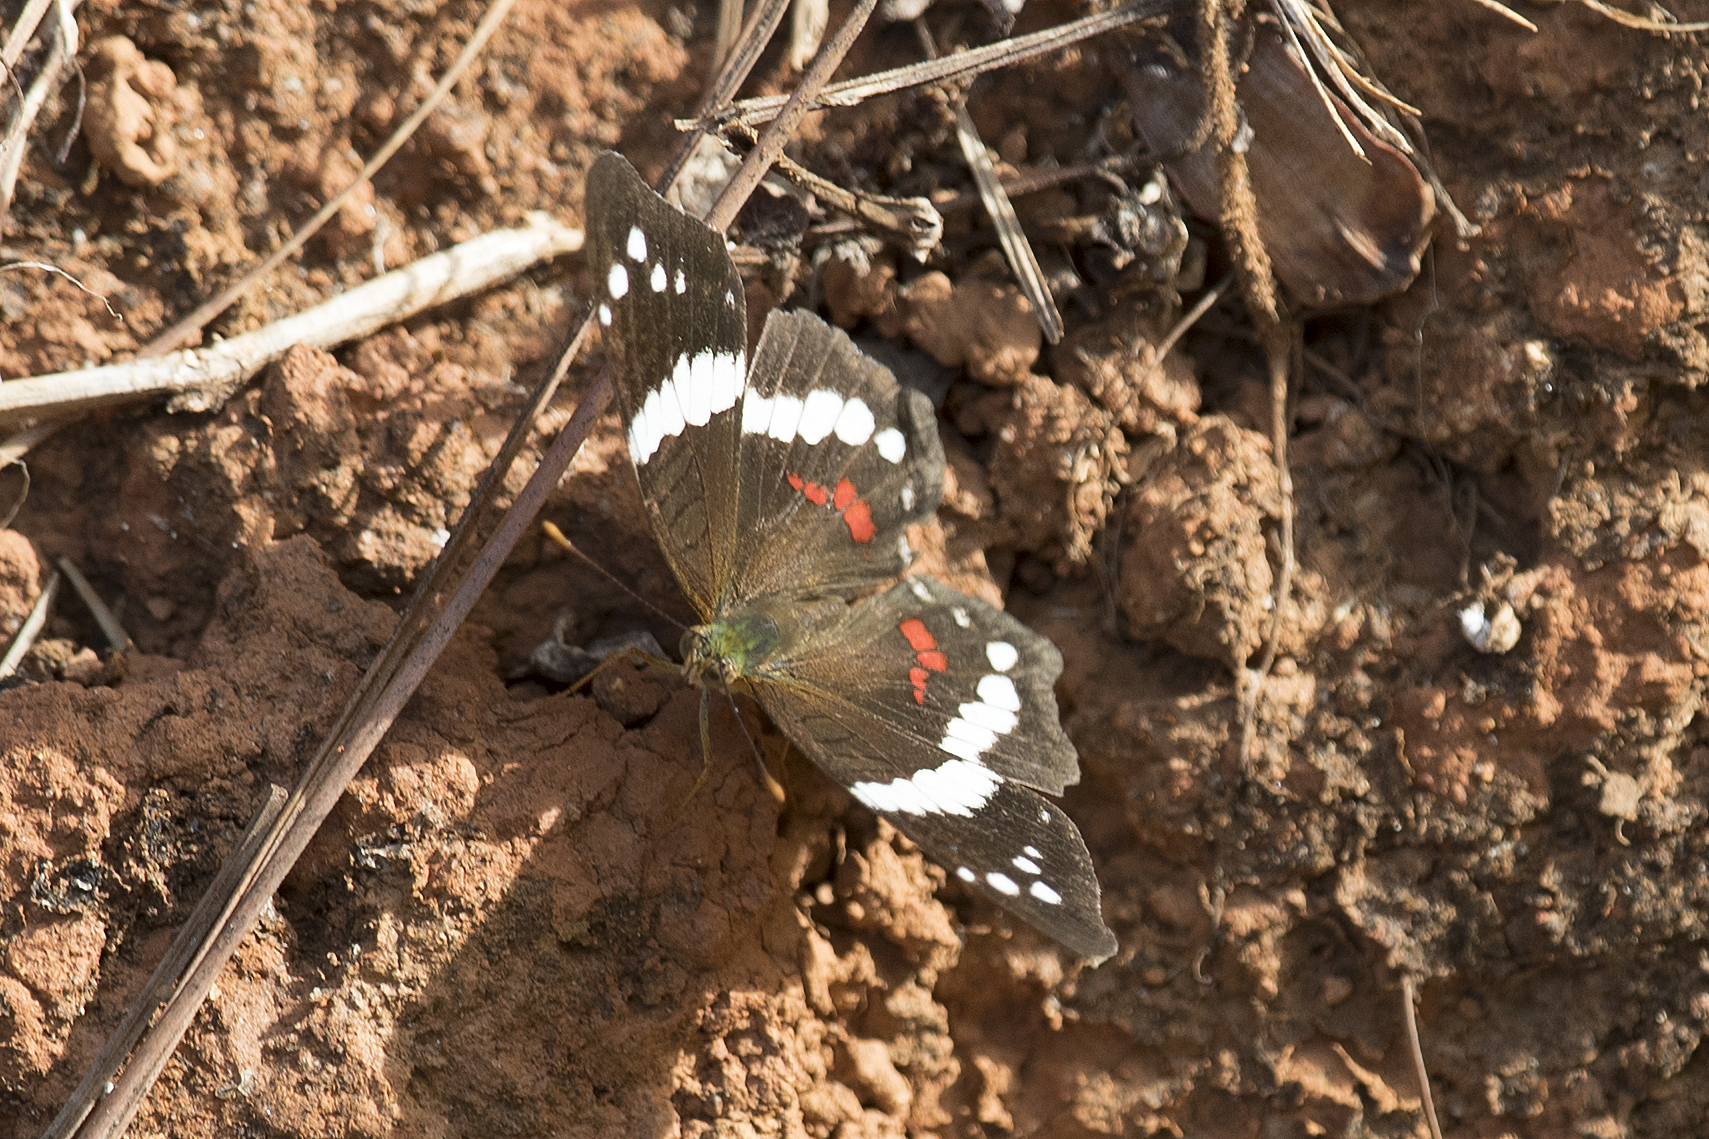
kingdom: Animalia
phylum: Arthropoda
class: Insecta
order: Lepidoptera
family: Nymphalidae
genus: Anartia
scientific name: Anartia fatima
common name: Banded peacock
